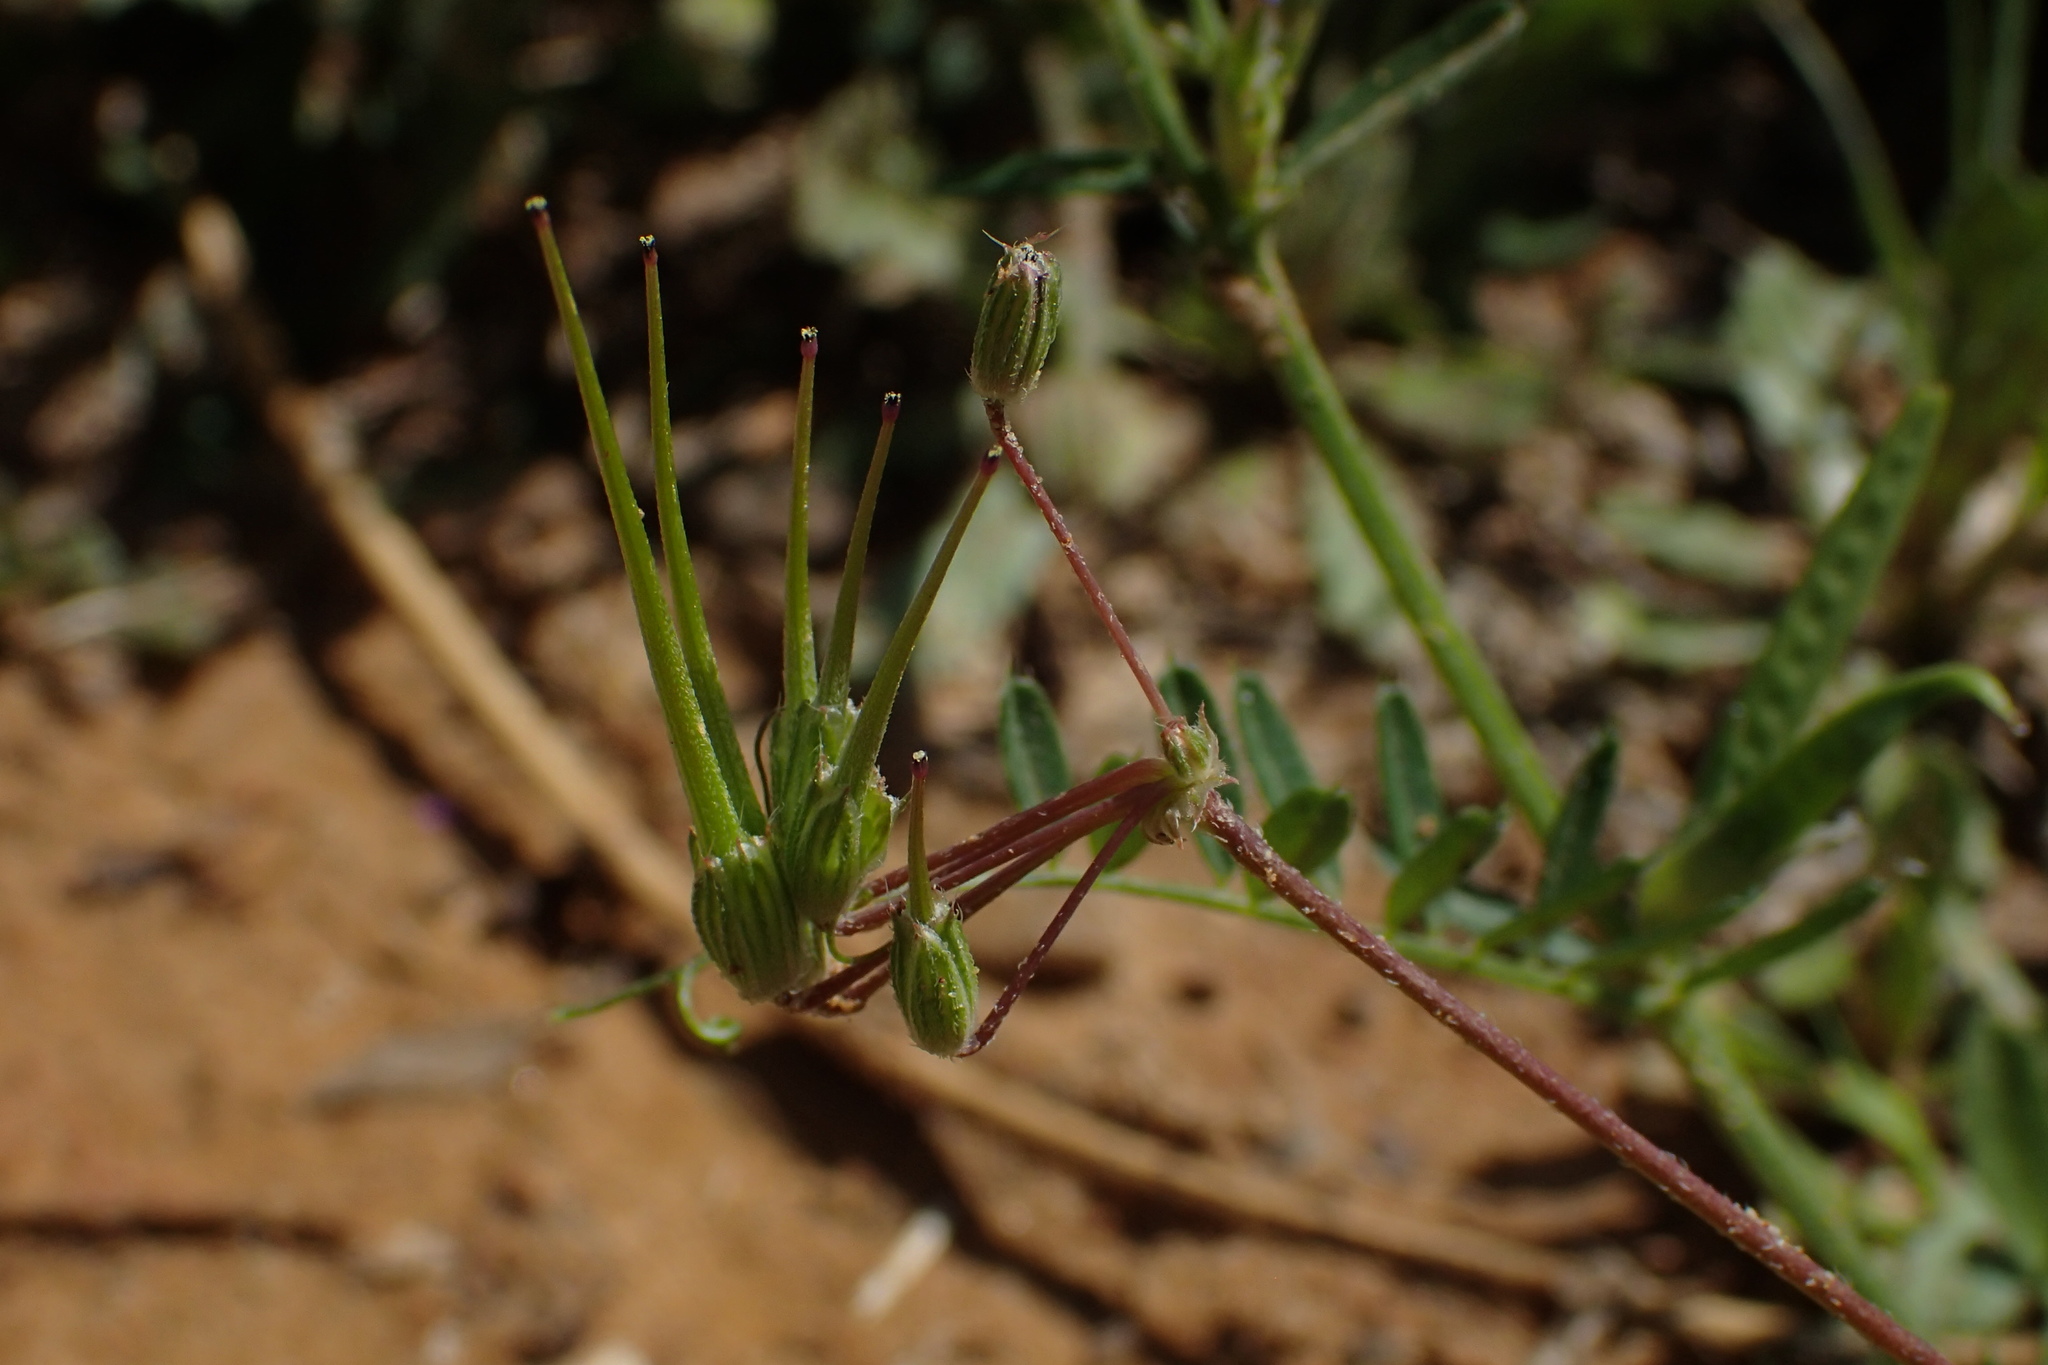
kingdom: Plantae
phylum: Tracheophyta
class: Magnoliopsida
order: Geraniales
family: Geraniaceae
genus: Erodium
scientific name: Erodium cicutarium
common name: Common stork's-bill
